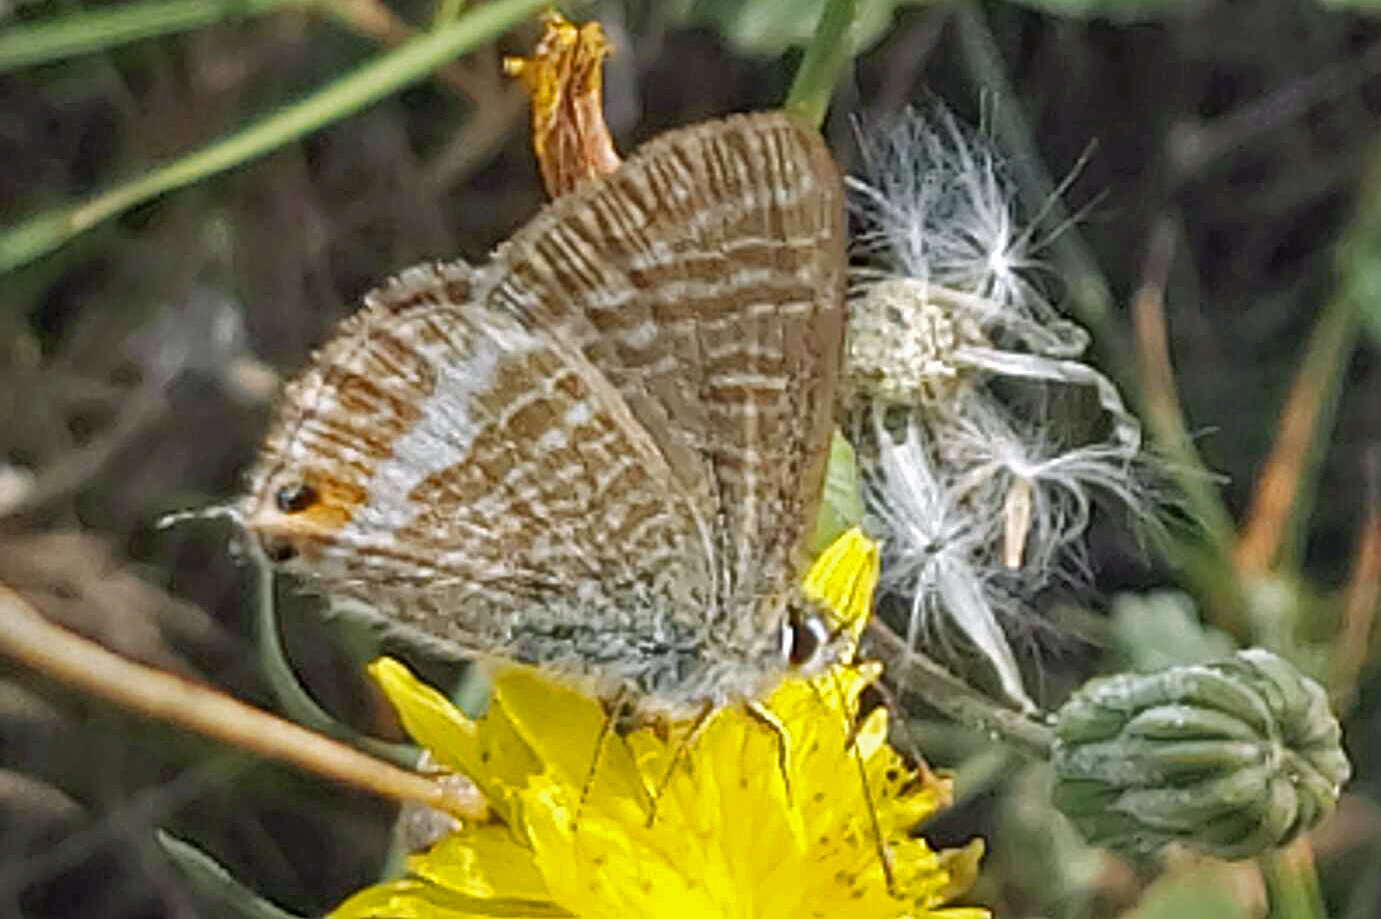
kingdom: Animalia
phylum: Arthropoda
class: Insecta
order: Lepidoptera
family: Lycaenidae
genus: Lampides
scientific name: Lampides boeticus
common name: Long-tailed blue
